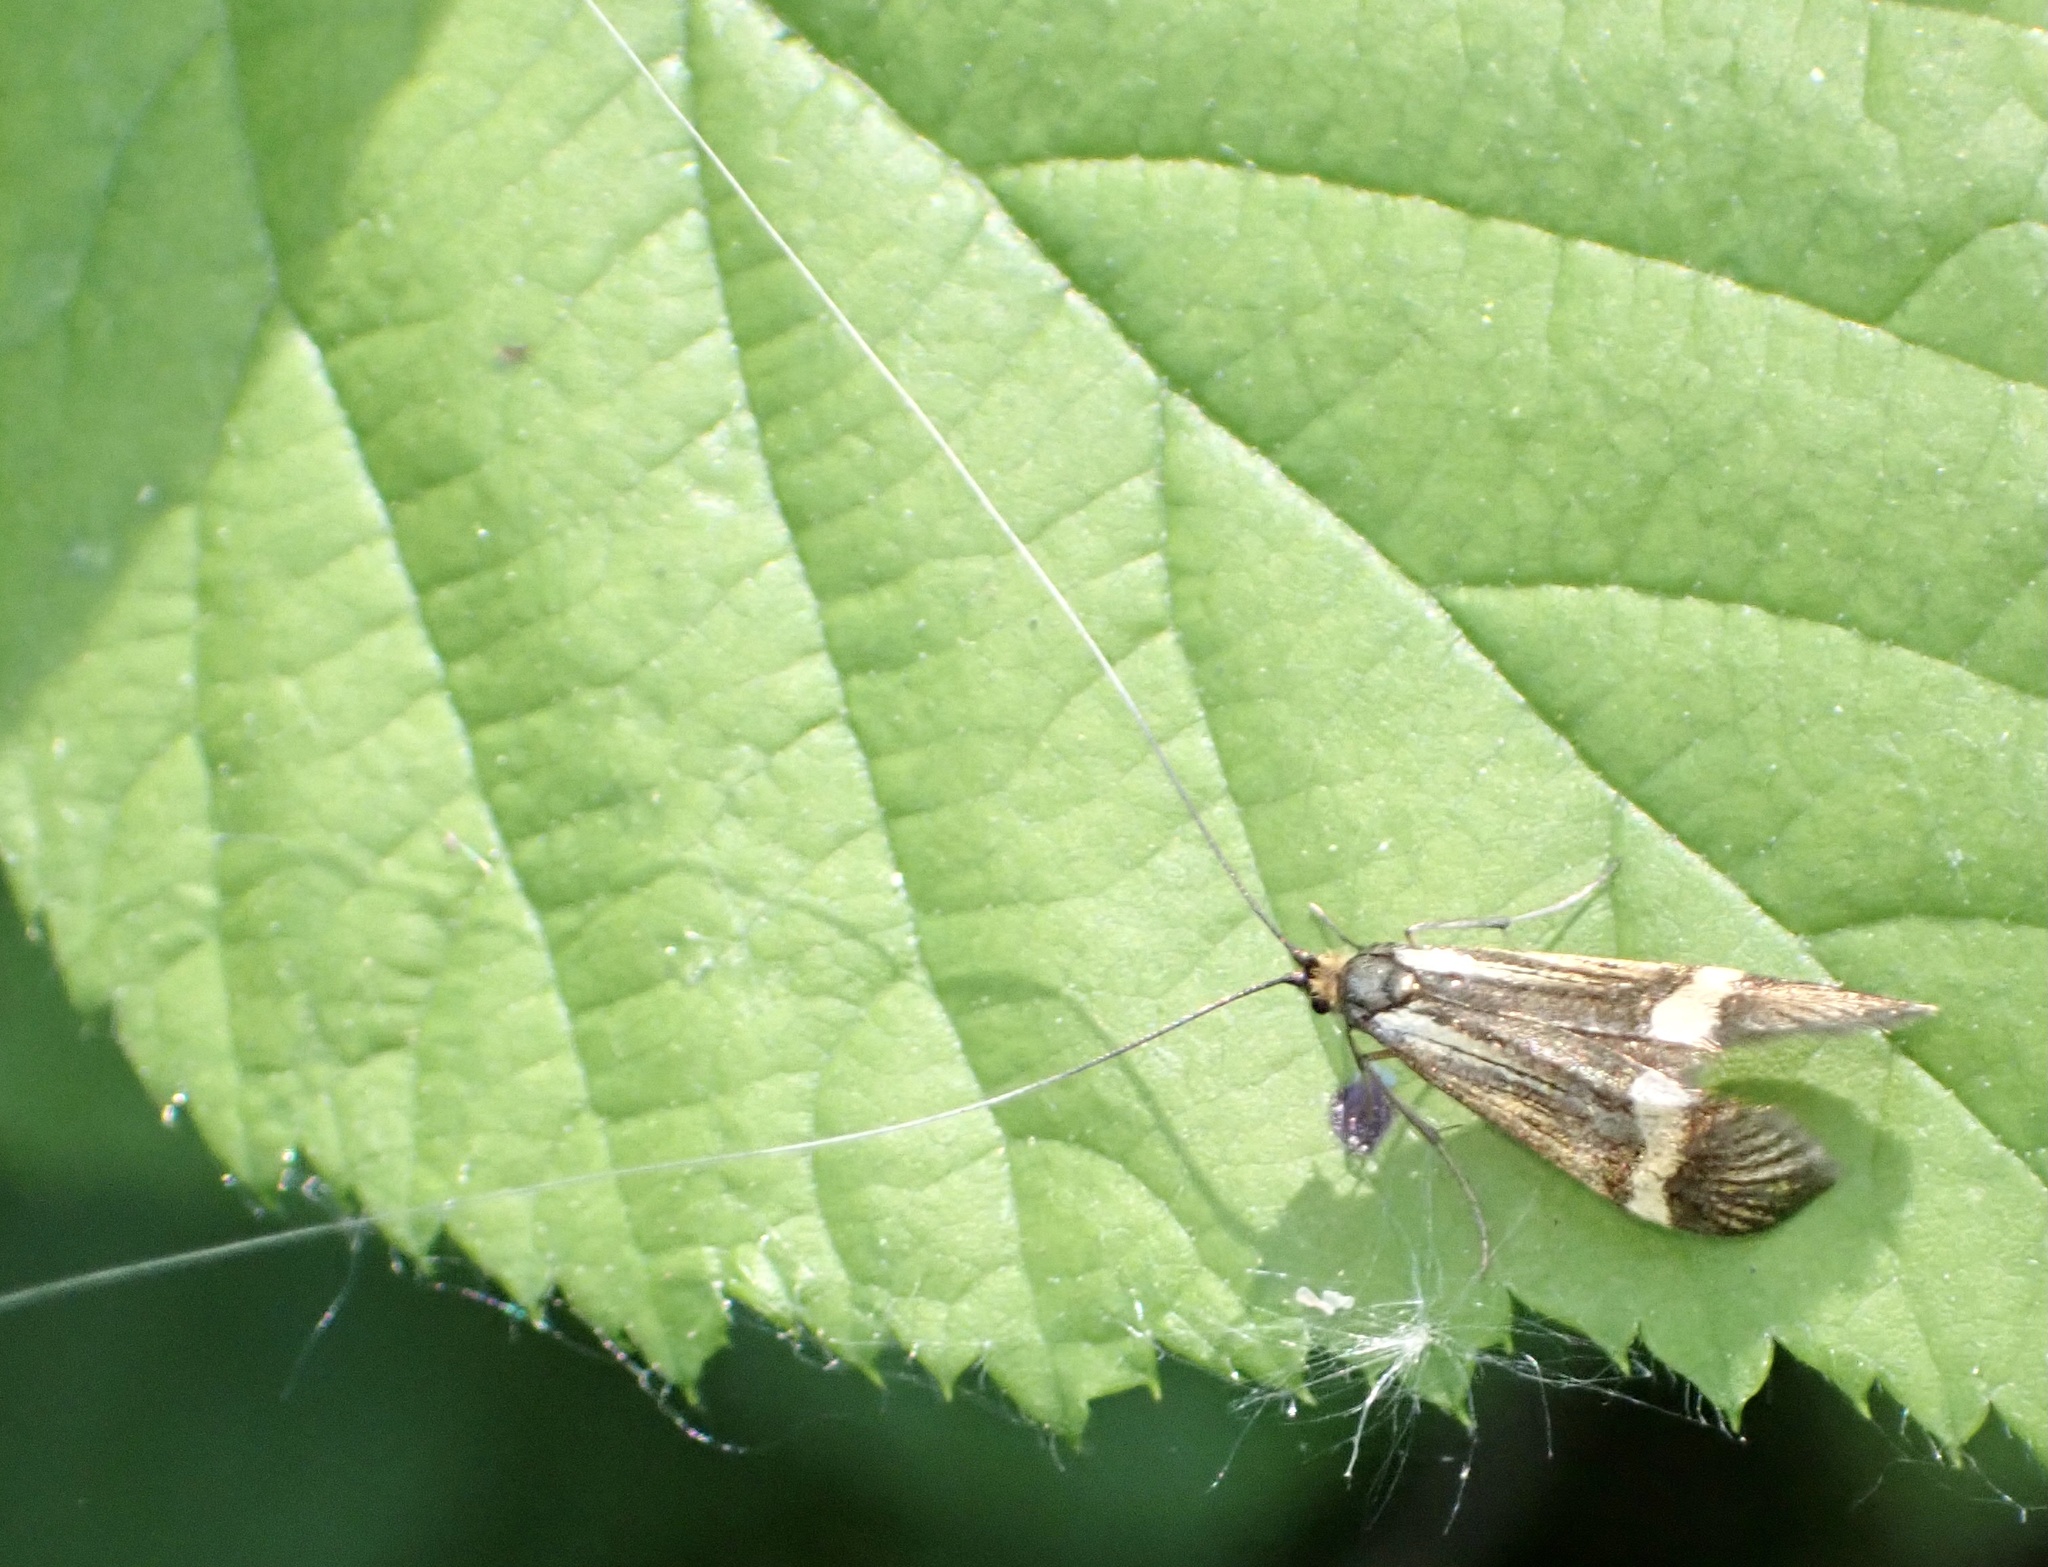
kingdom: Animalia
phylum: Arthropoda
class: Insecta
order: Lepidoptera
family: Adelidae
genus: Nemophora
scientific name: Nemophora degeerella
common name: Yellow-barred long-horn
